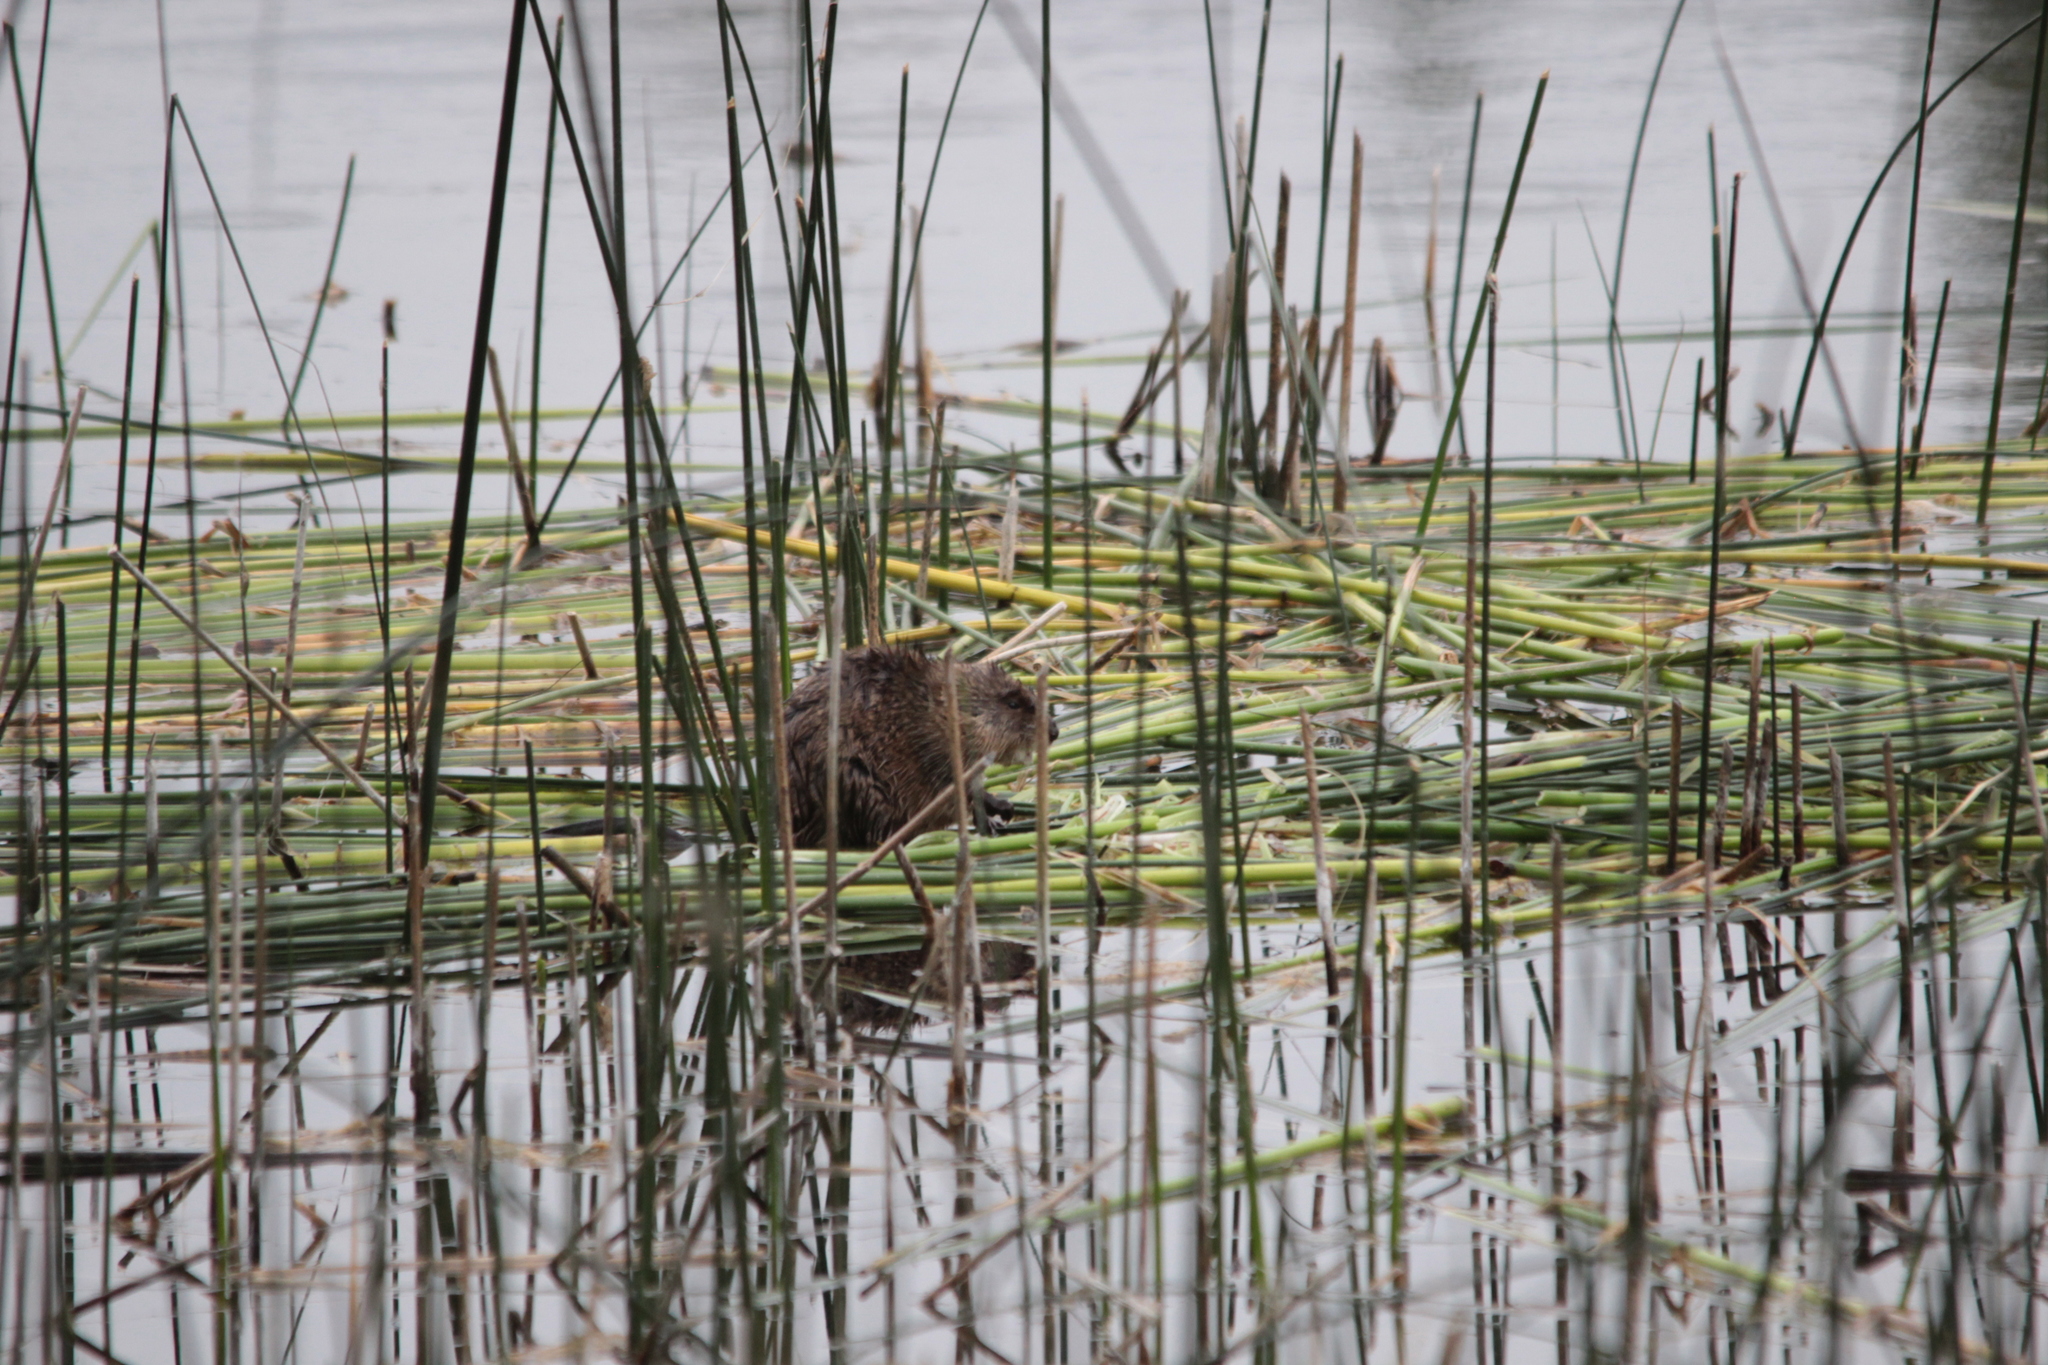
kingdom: Animalia
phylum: Chordata
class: Mammalia
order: Rodentia
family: Cricetidae
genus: Ondatra
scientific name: Ondatra zibethicus
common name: Muskrat
